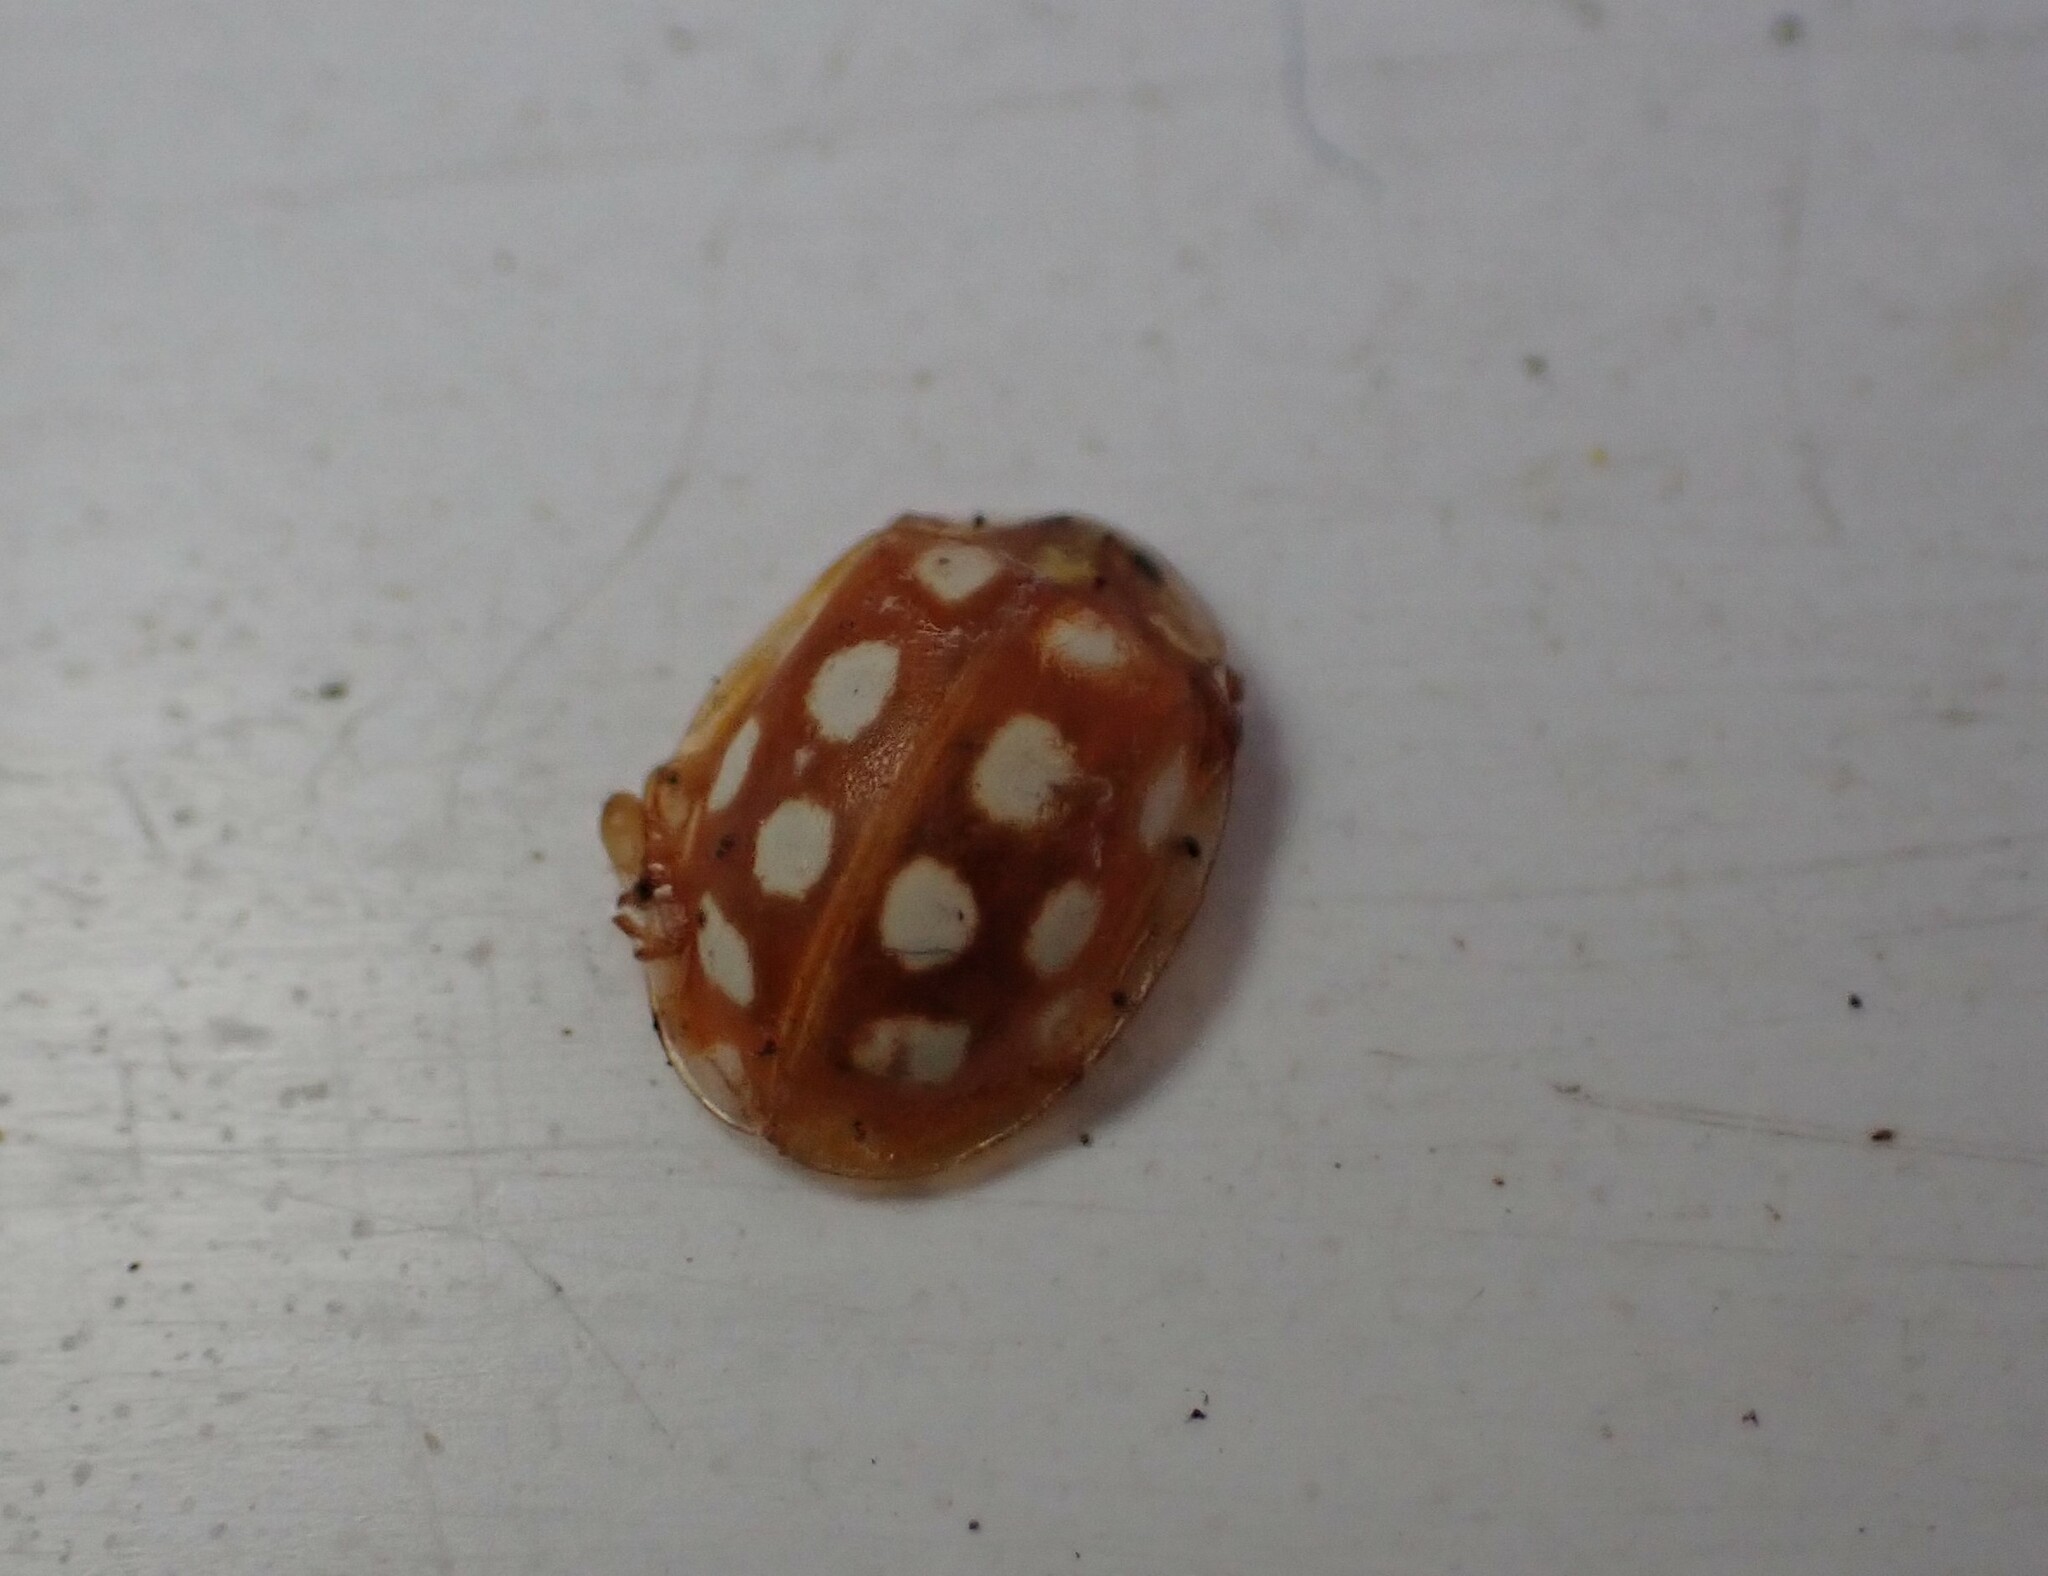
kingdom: Animalia
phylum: Arthropoda
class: Insecta
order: Coleoptera
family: Coccinellidae
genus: Halyzia
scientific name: Halyzia sedecimguttata
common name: Orange ladybird
